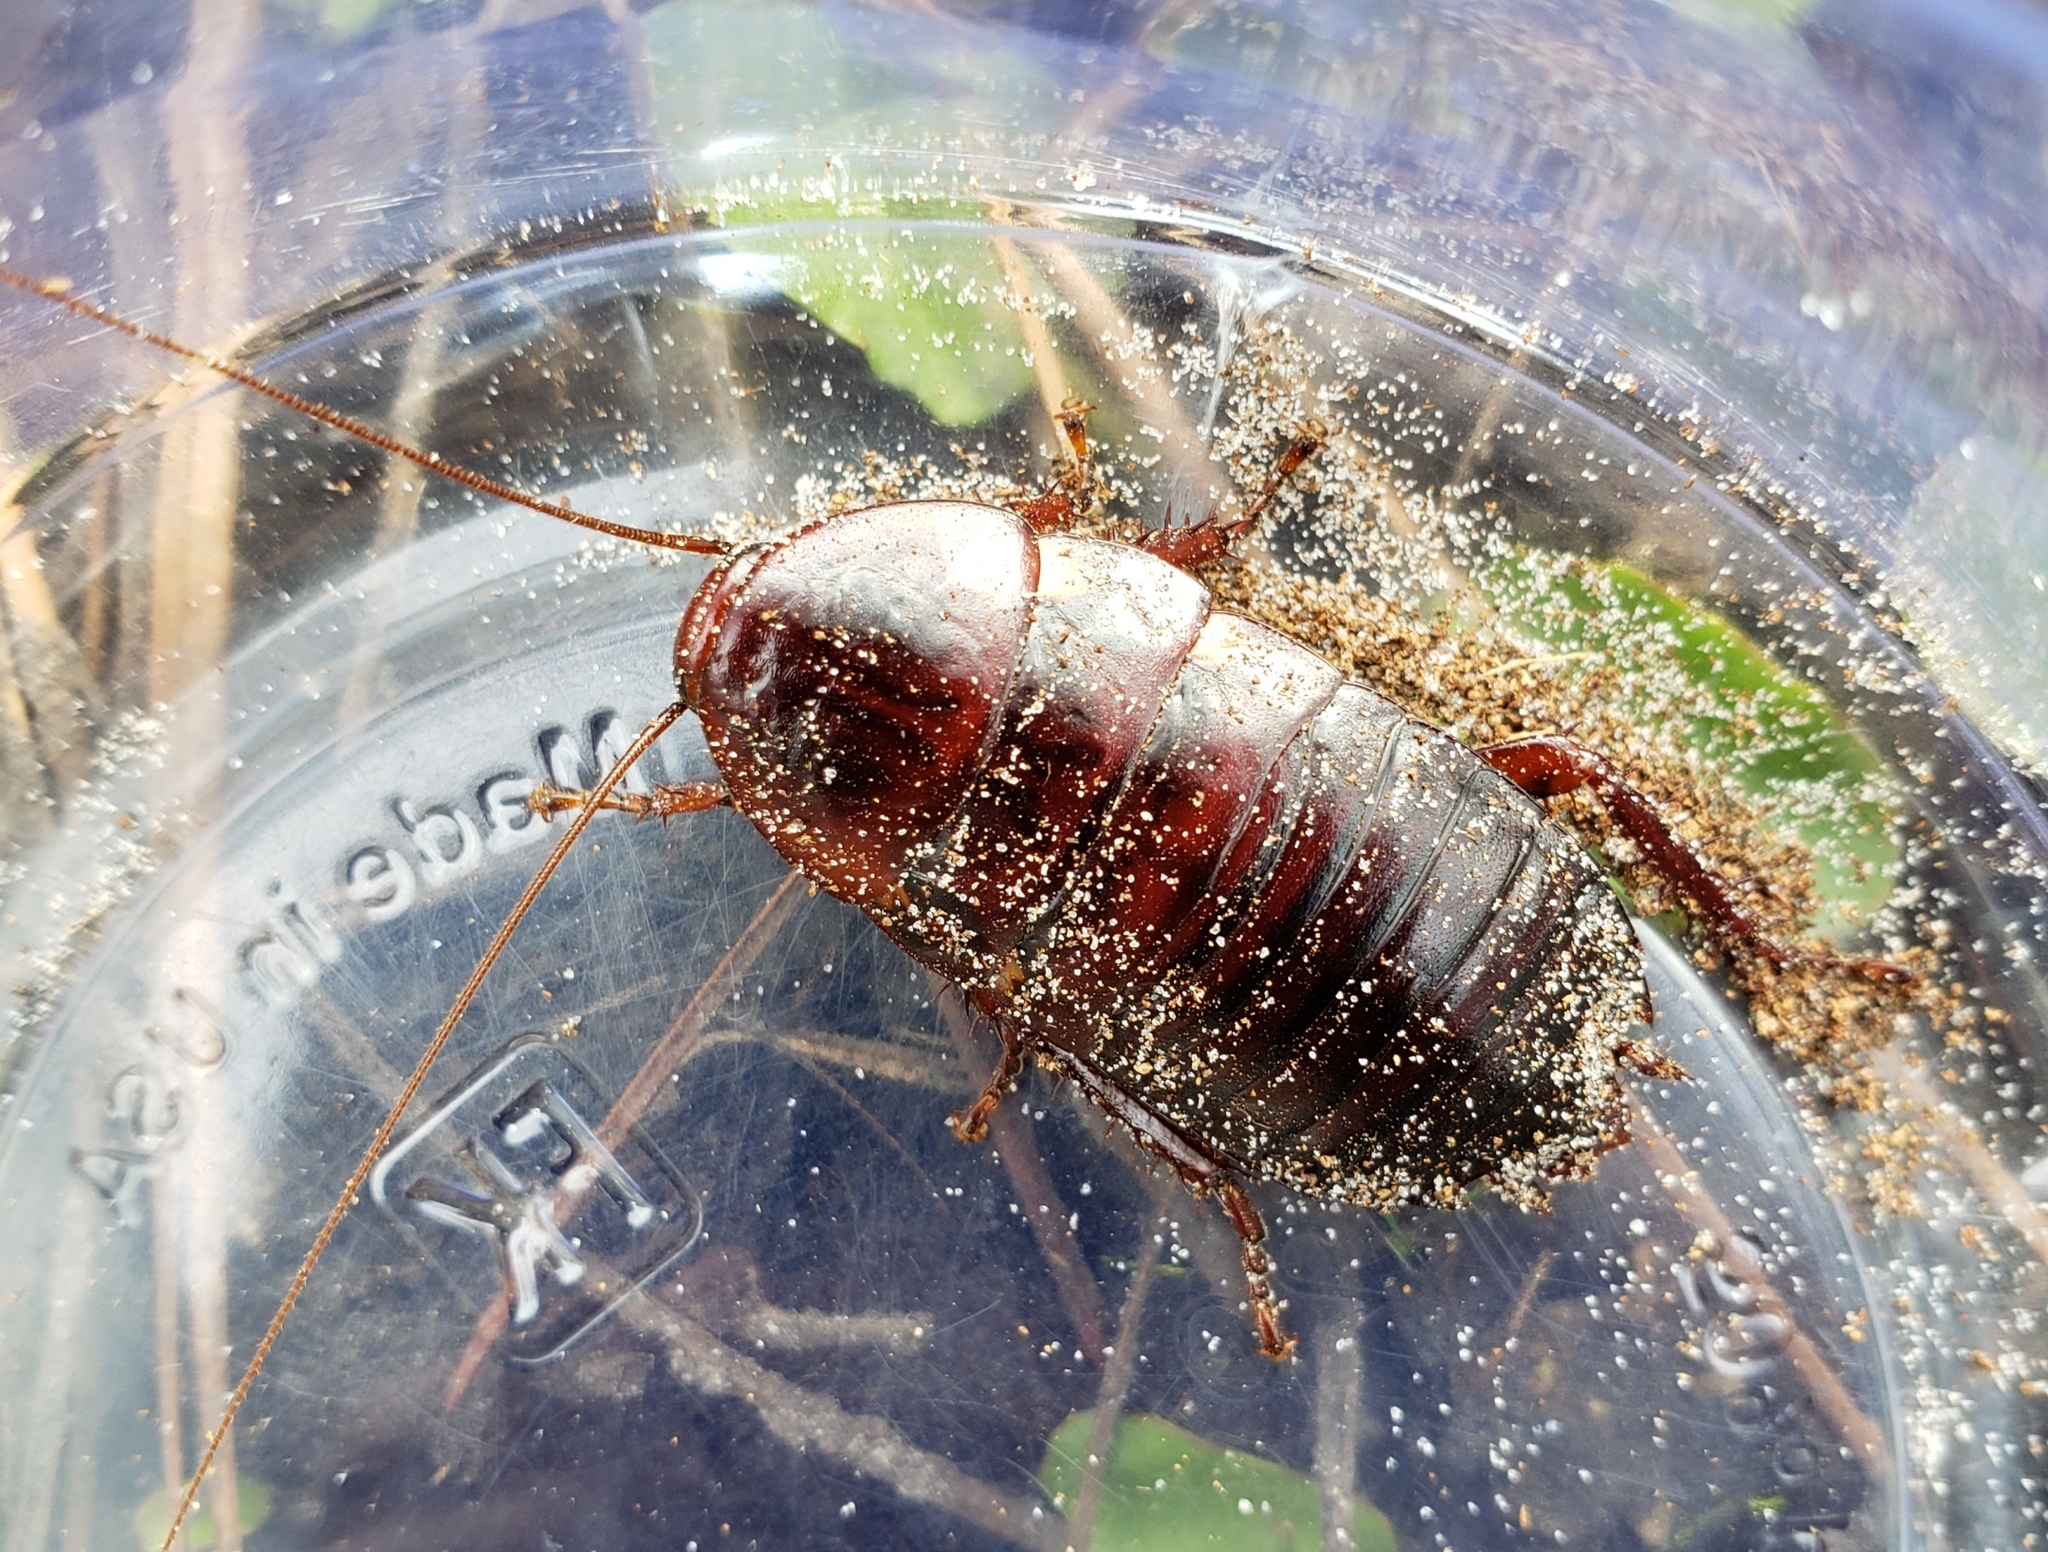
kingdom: Animalia
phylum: Arthropoda
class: Insecta
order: Blattodea
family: Blattidae
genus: Eurycotis
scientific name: Eurycotis floridana
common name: Florida cockroach
